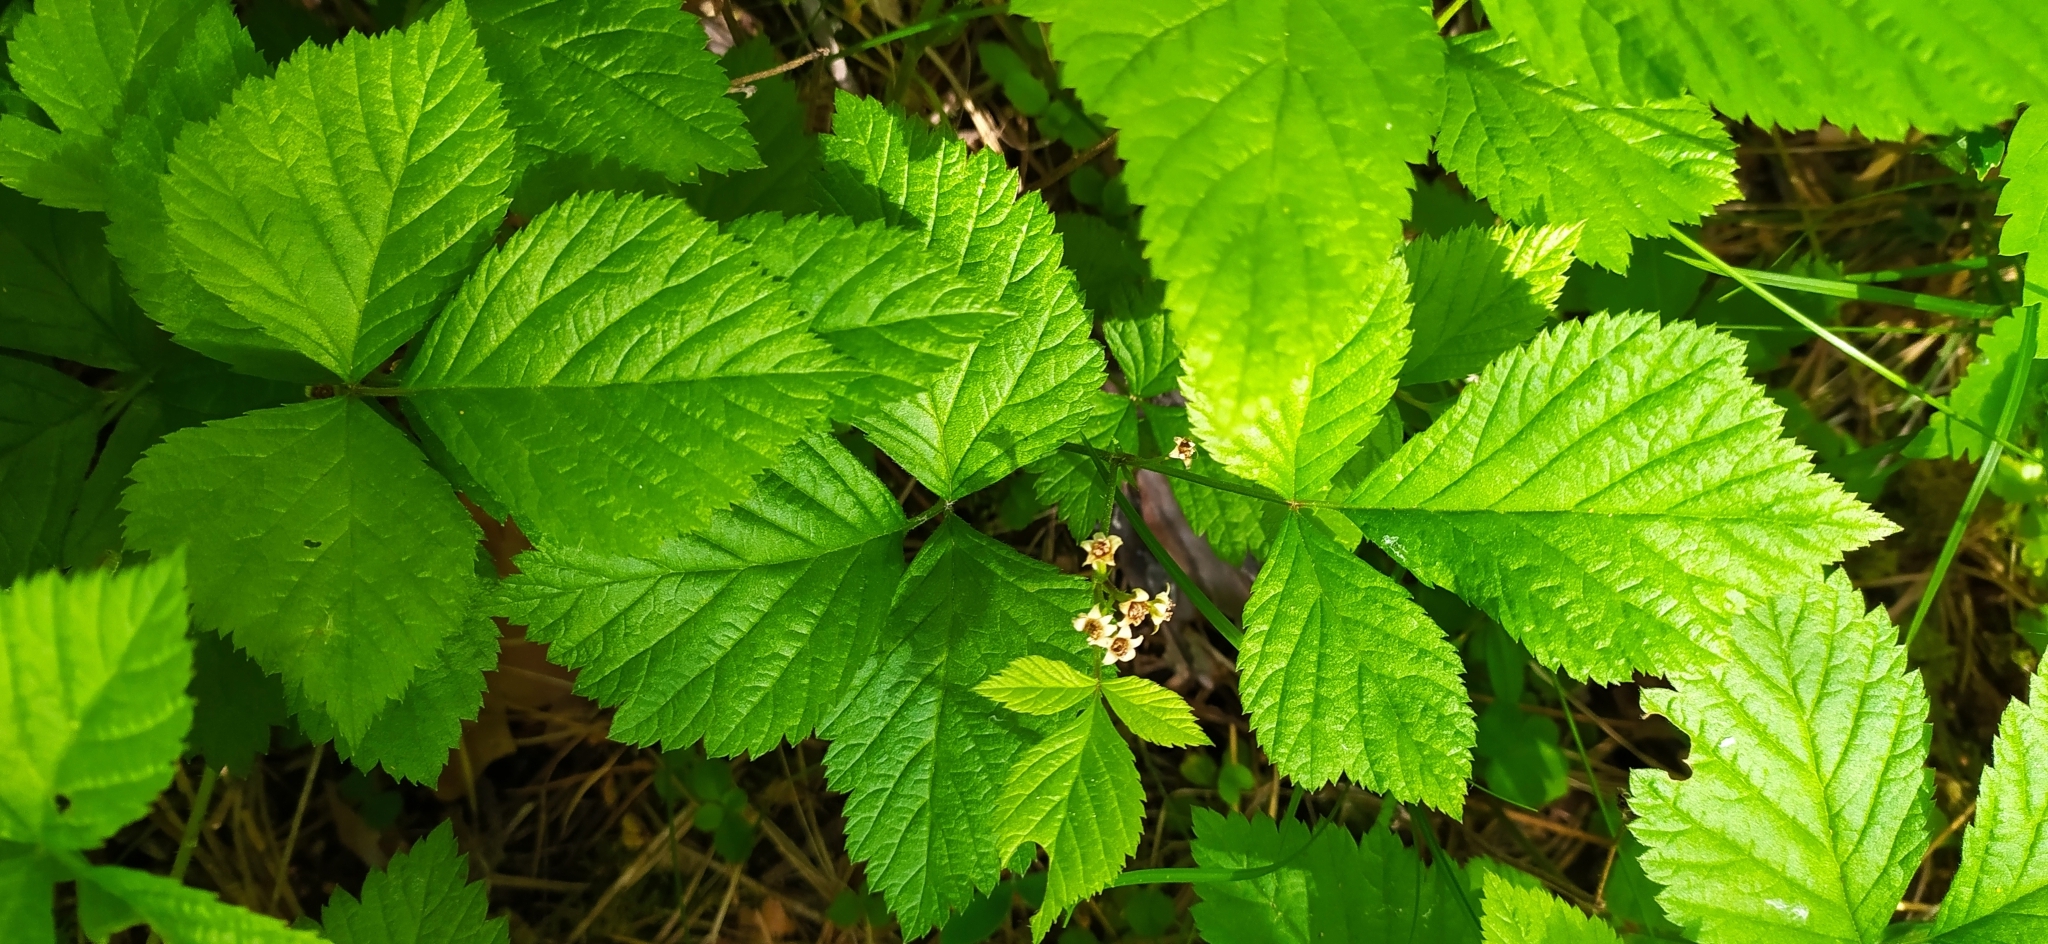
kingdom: Plantae
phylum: Tracheophyta
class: Magnoliopsida
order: Rosales
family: Rosaceae
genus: Rubus
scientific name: Rubus saxatilis
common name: Stone bramble
